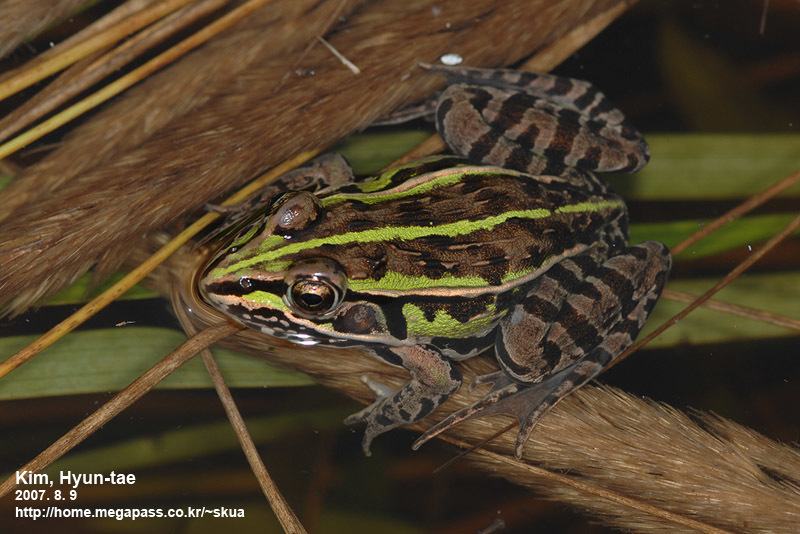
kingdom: Animalia
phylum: Chordata
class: Amphibia
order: Anura
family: Ranidae
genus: Pelophylax
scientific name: Pelophylax nigromaculatus
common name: Black-spotted pond frog
